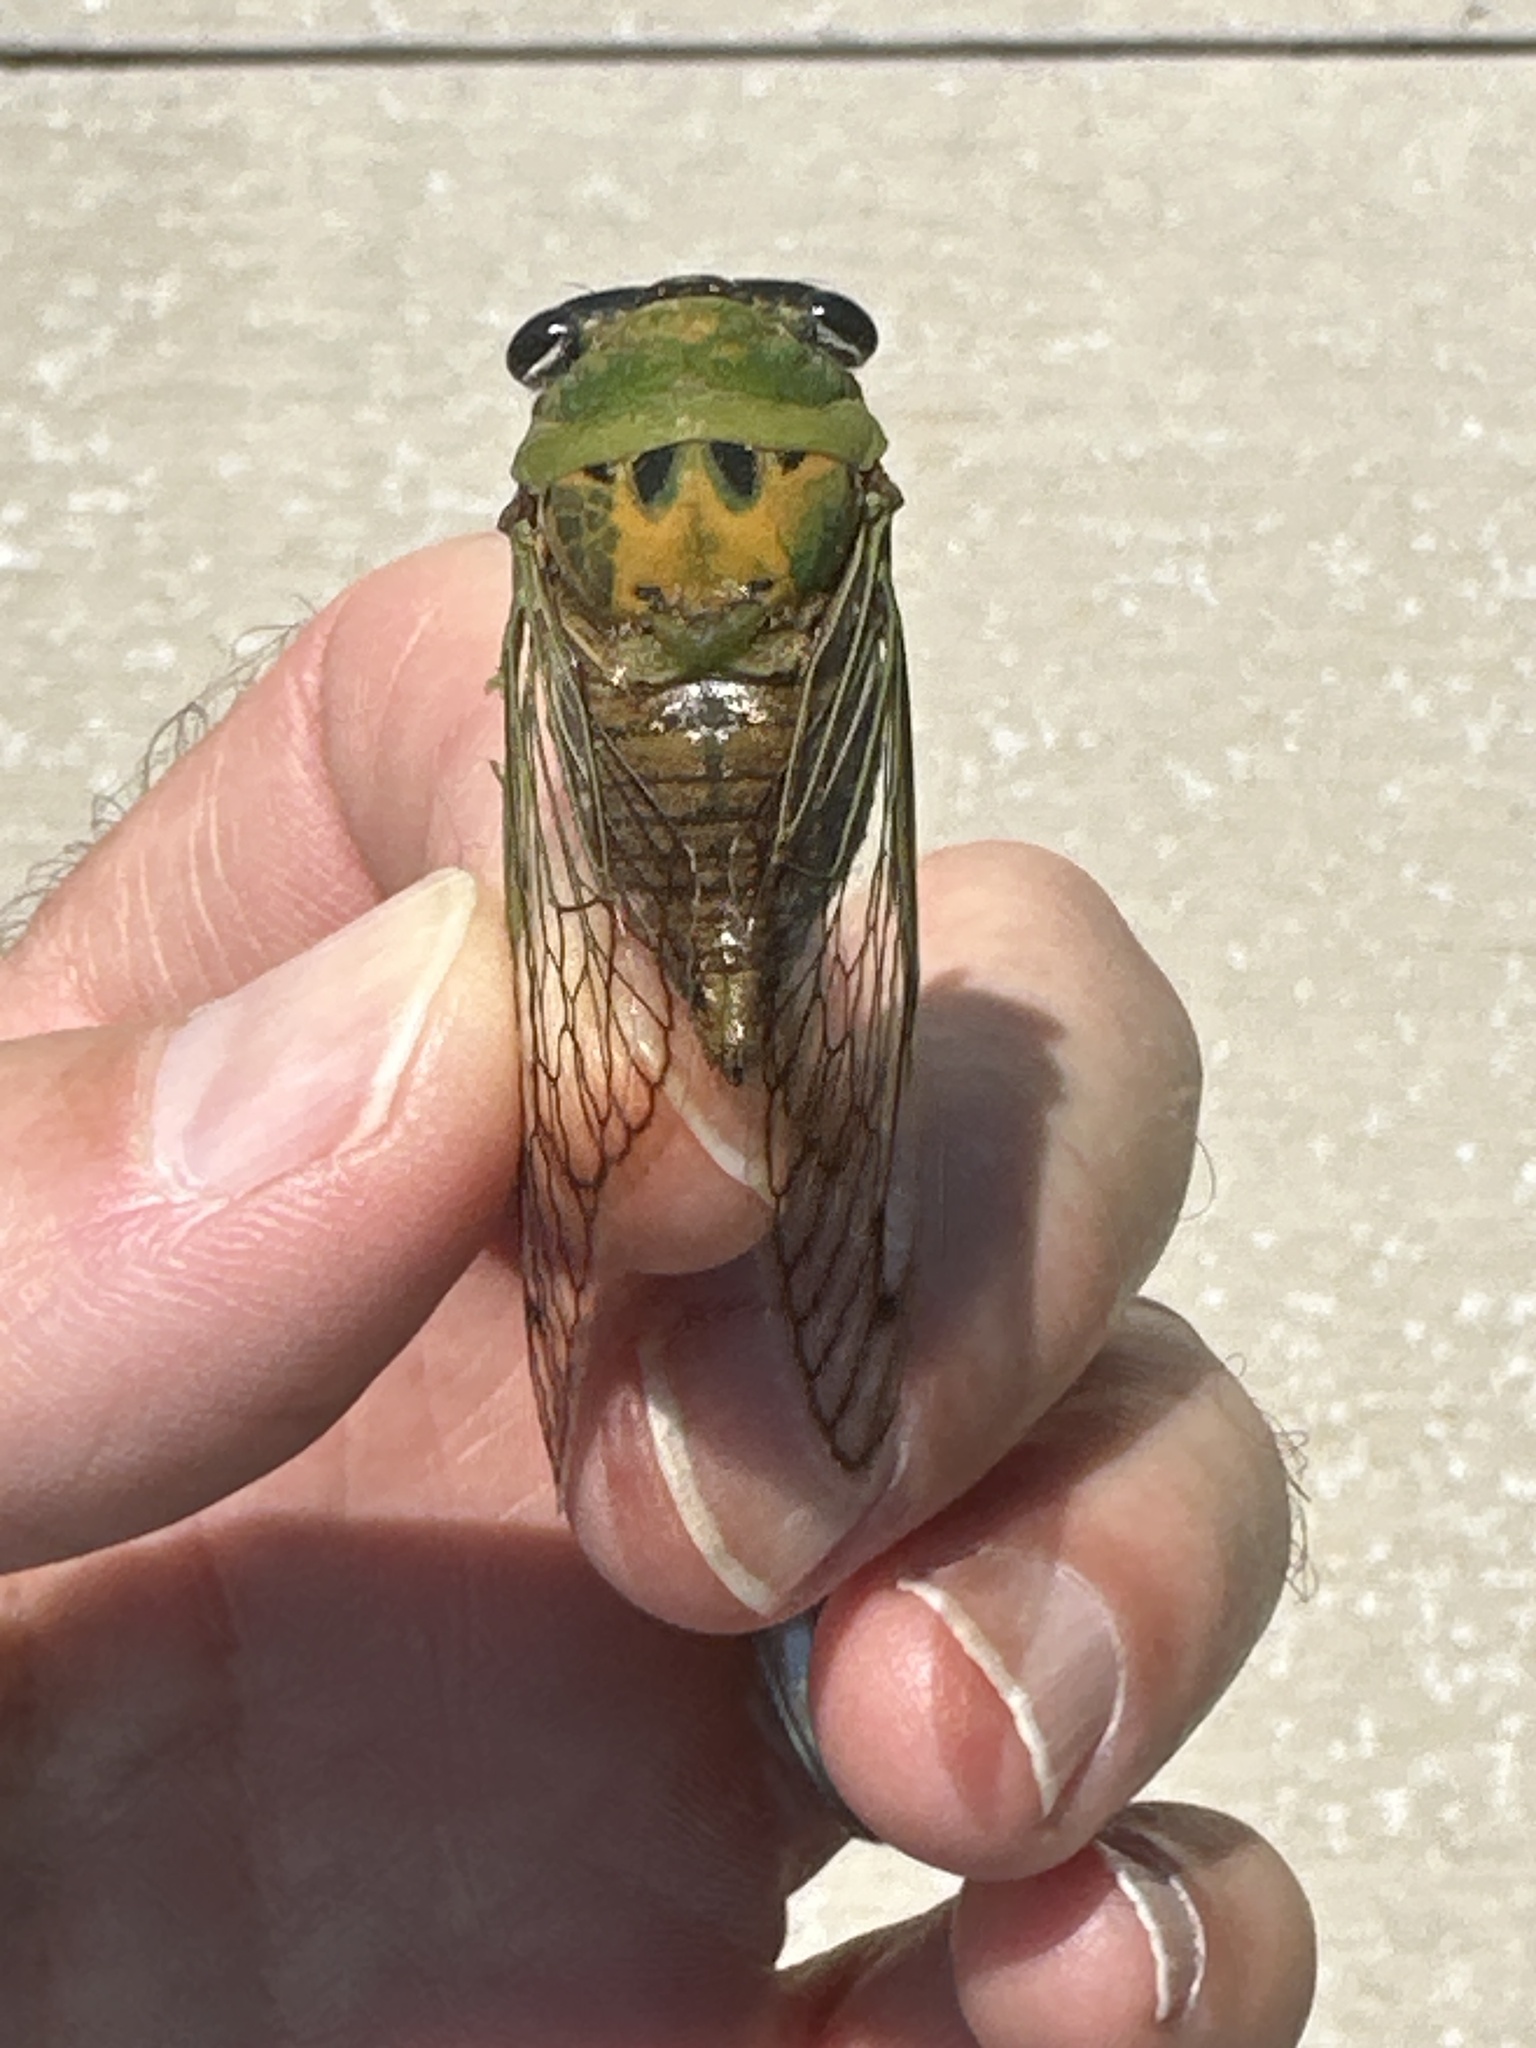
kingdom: Animalia
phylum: Arthropoda
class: Insecta
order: Hemiptera
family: Cicadidae
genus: Neotibicen
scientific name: Neotibicen superbus
